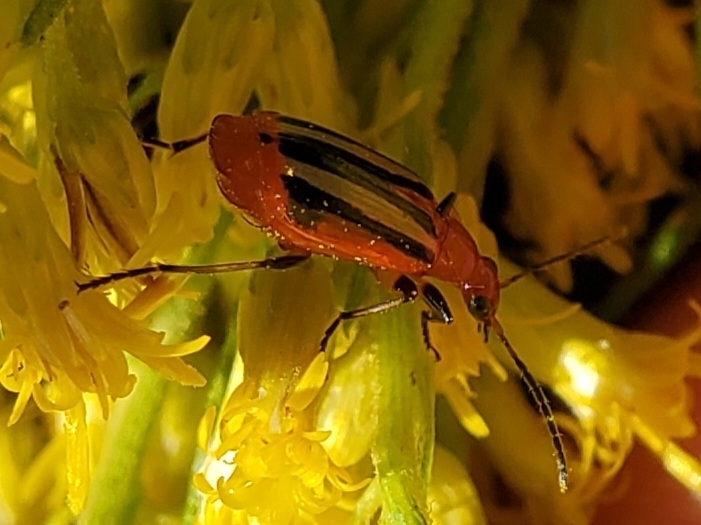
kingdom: Animalia
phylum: Arthropoda
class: Insecta
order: Coleoptera
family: Carabidae
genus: Lebia
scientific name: Lebia vittata
